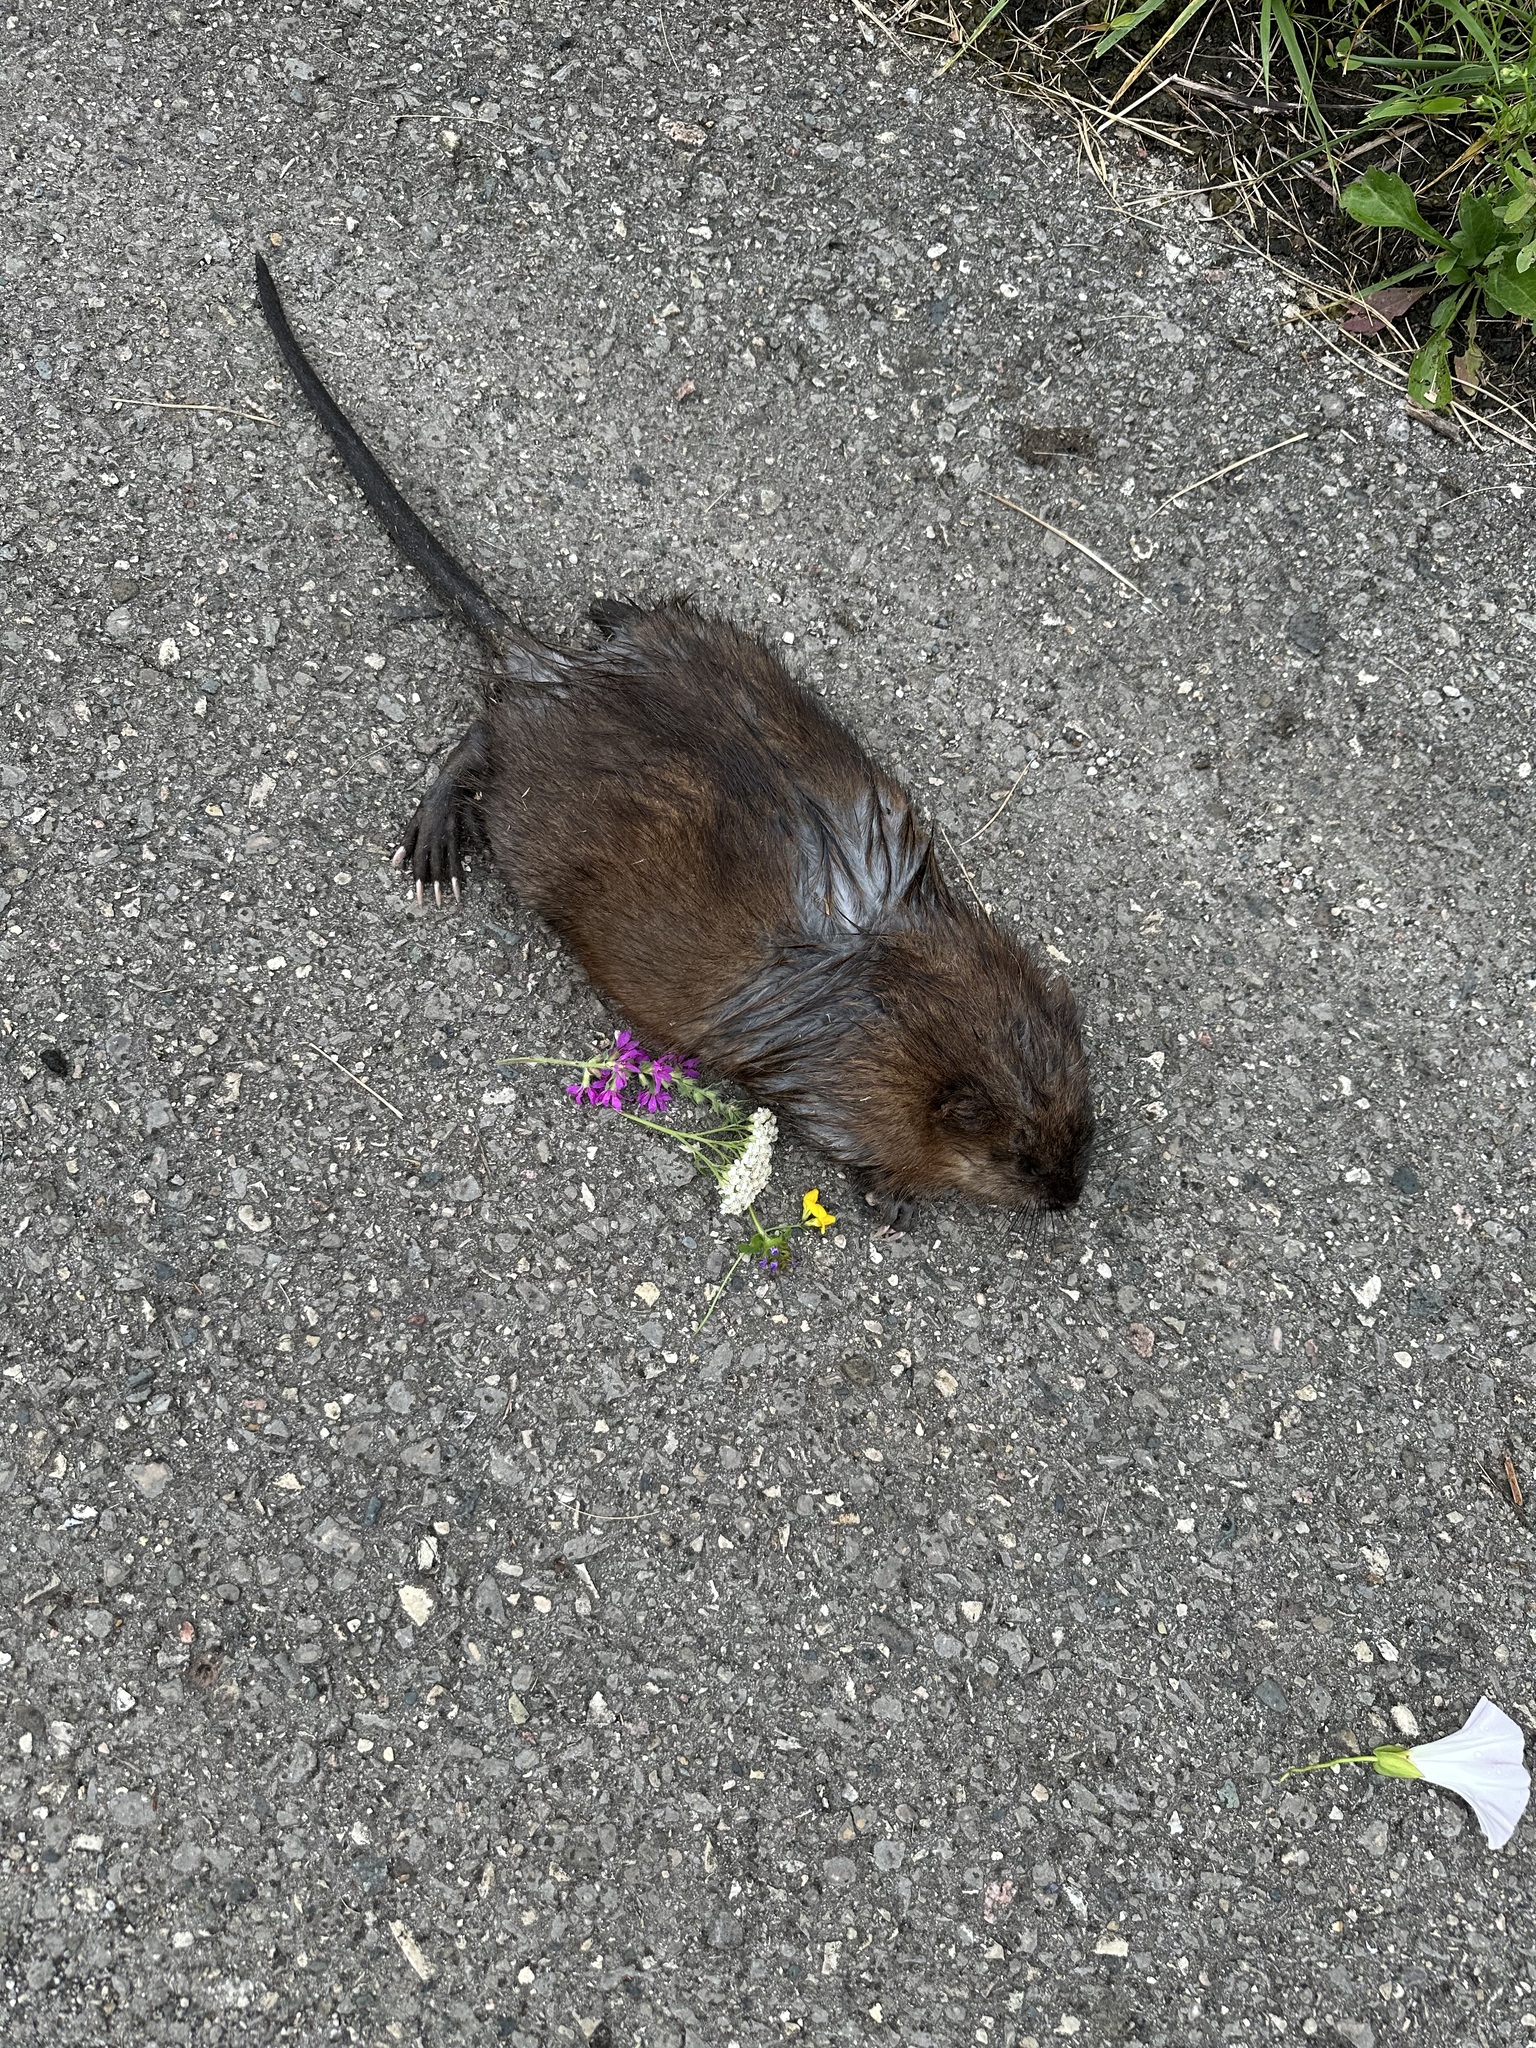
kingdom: Animalia
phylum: Chordata
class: Mammalia
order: Rodentia
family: Cricetidae
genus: Ondatra
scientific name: Ondatra zibethicus
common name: Muskrat
